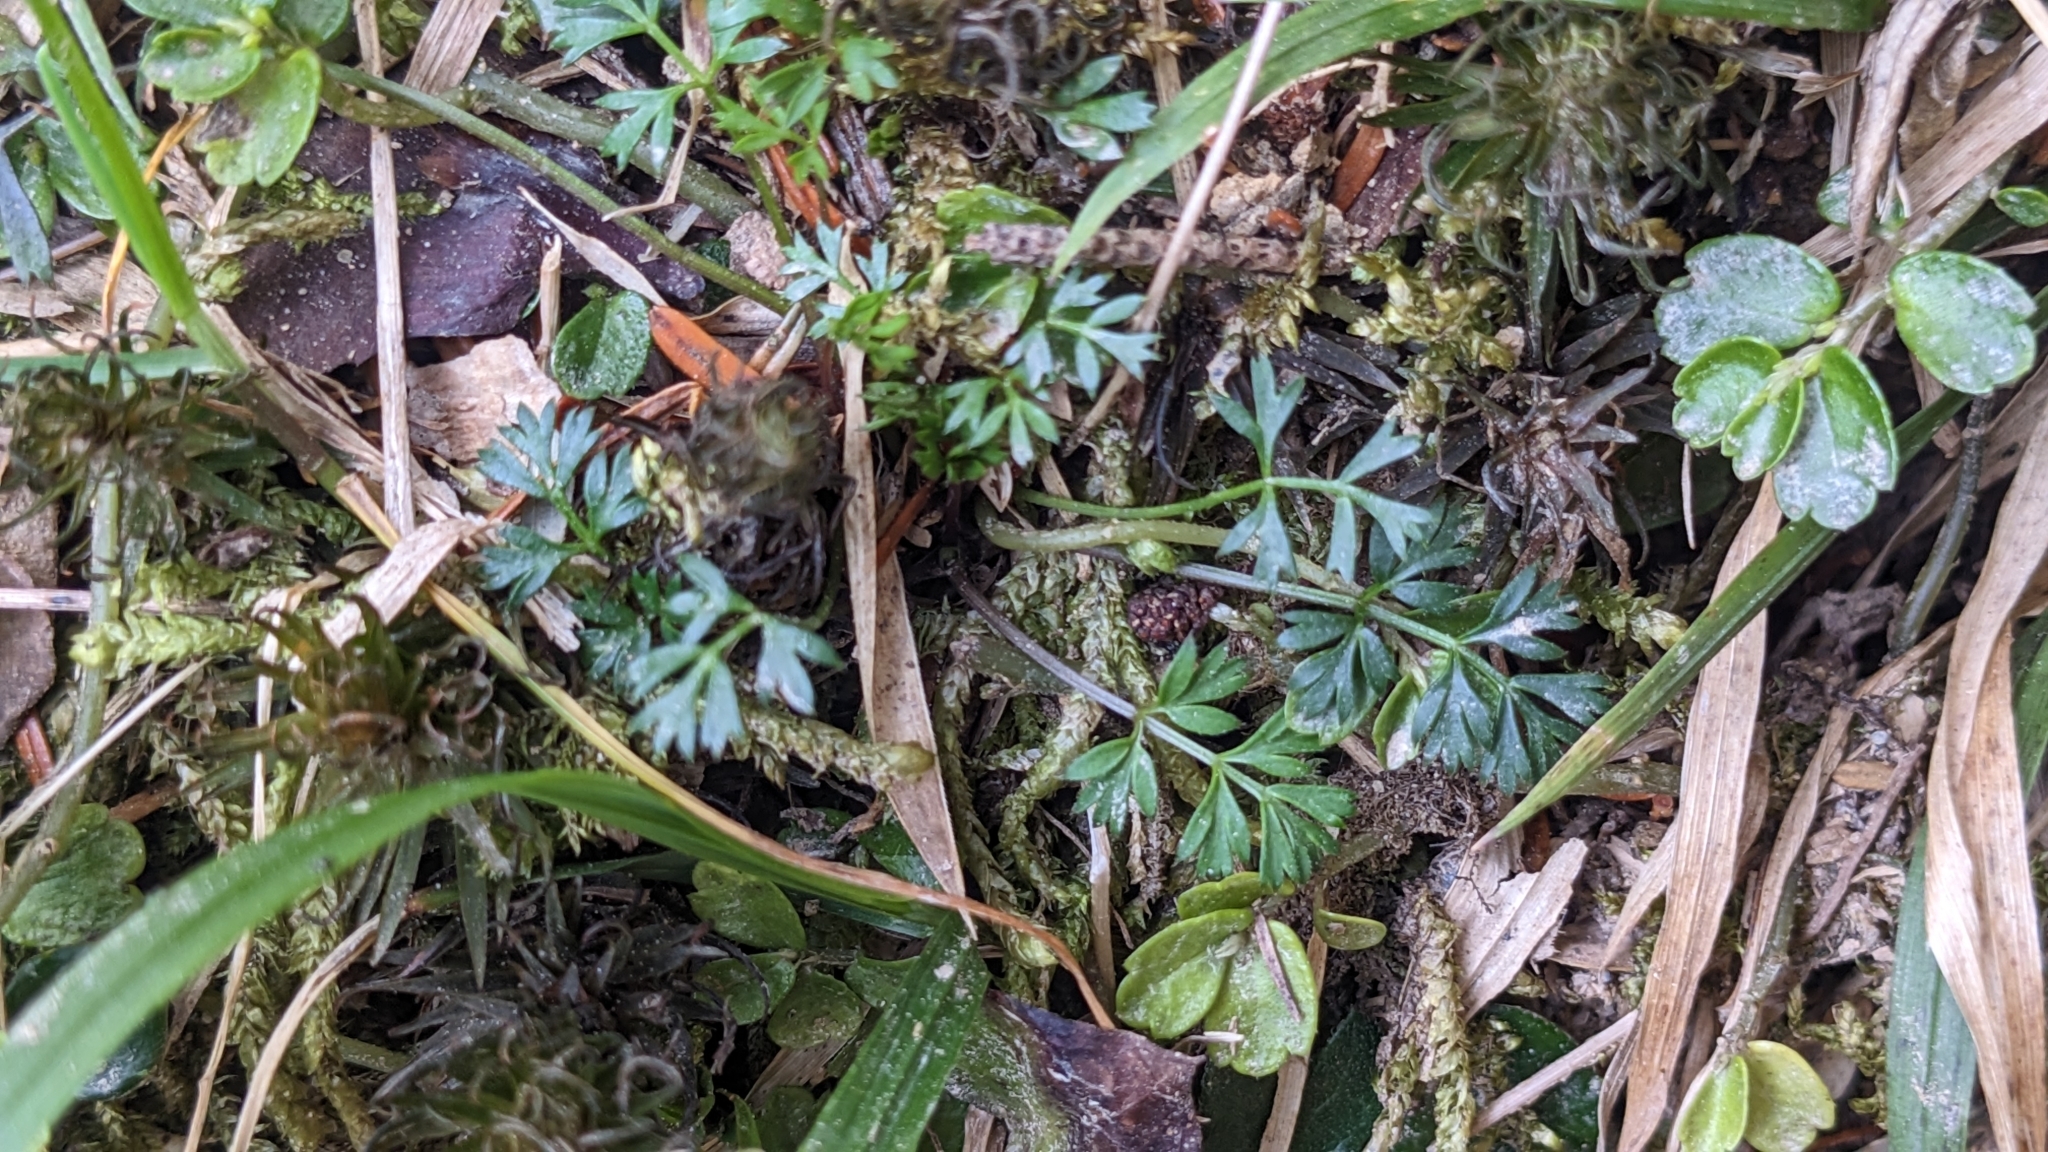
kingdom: Plantae
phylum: Tracheophyta
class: Magnoliopsida
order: Apiales
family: Apiaceae
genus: Chaerophyllum
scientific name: Chaerophyllum involucratum
